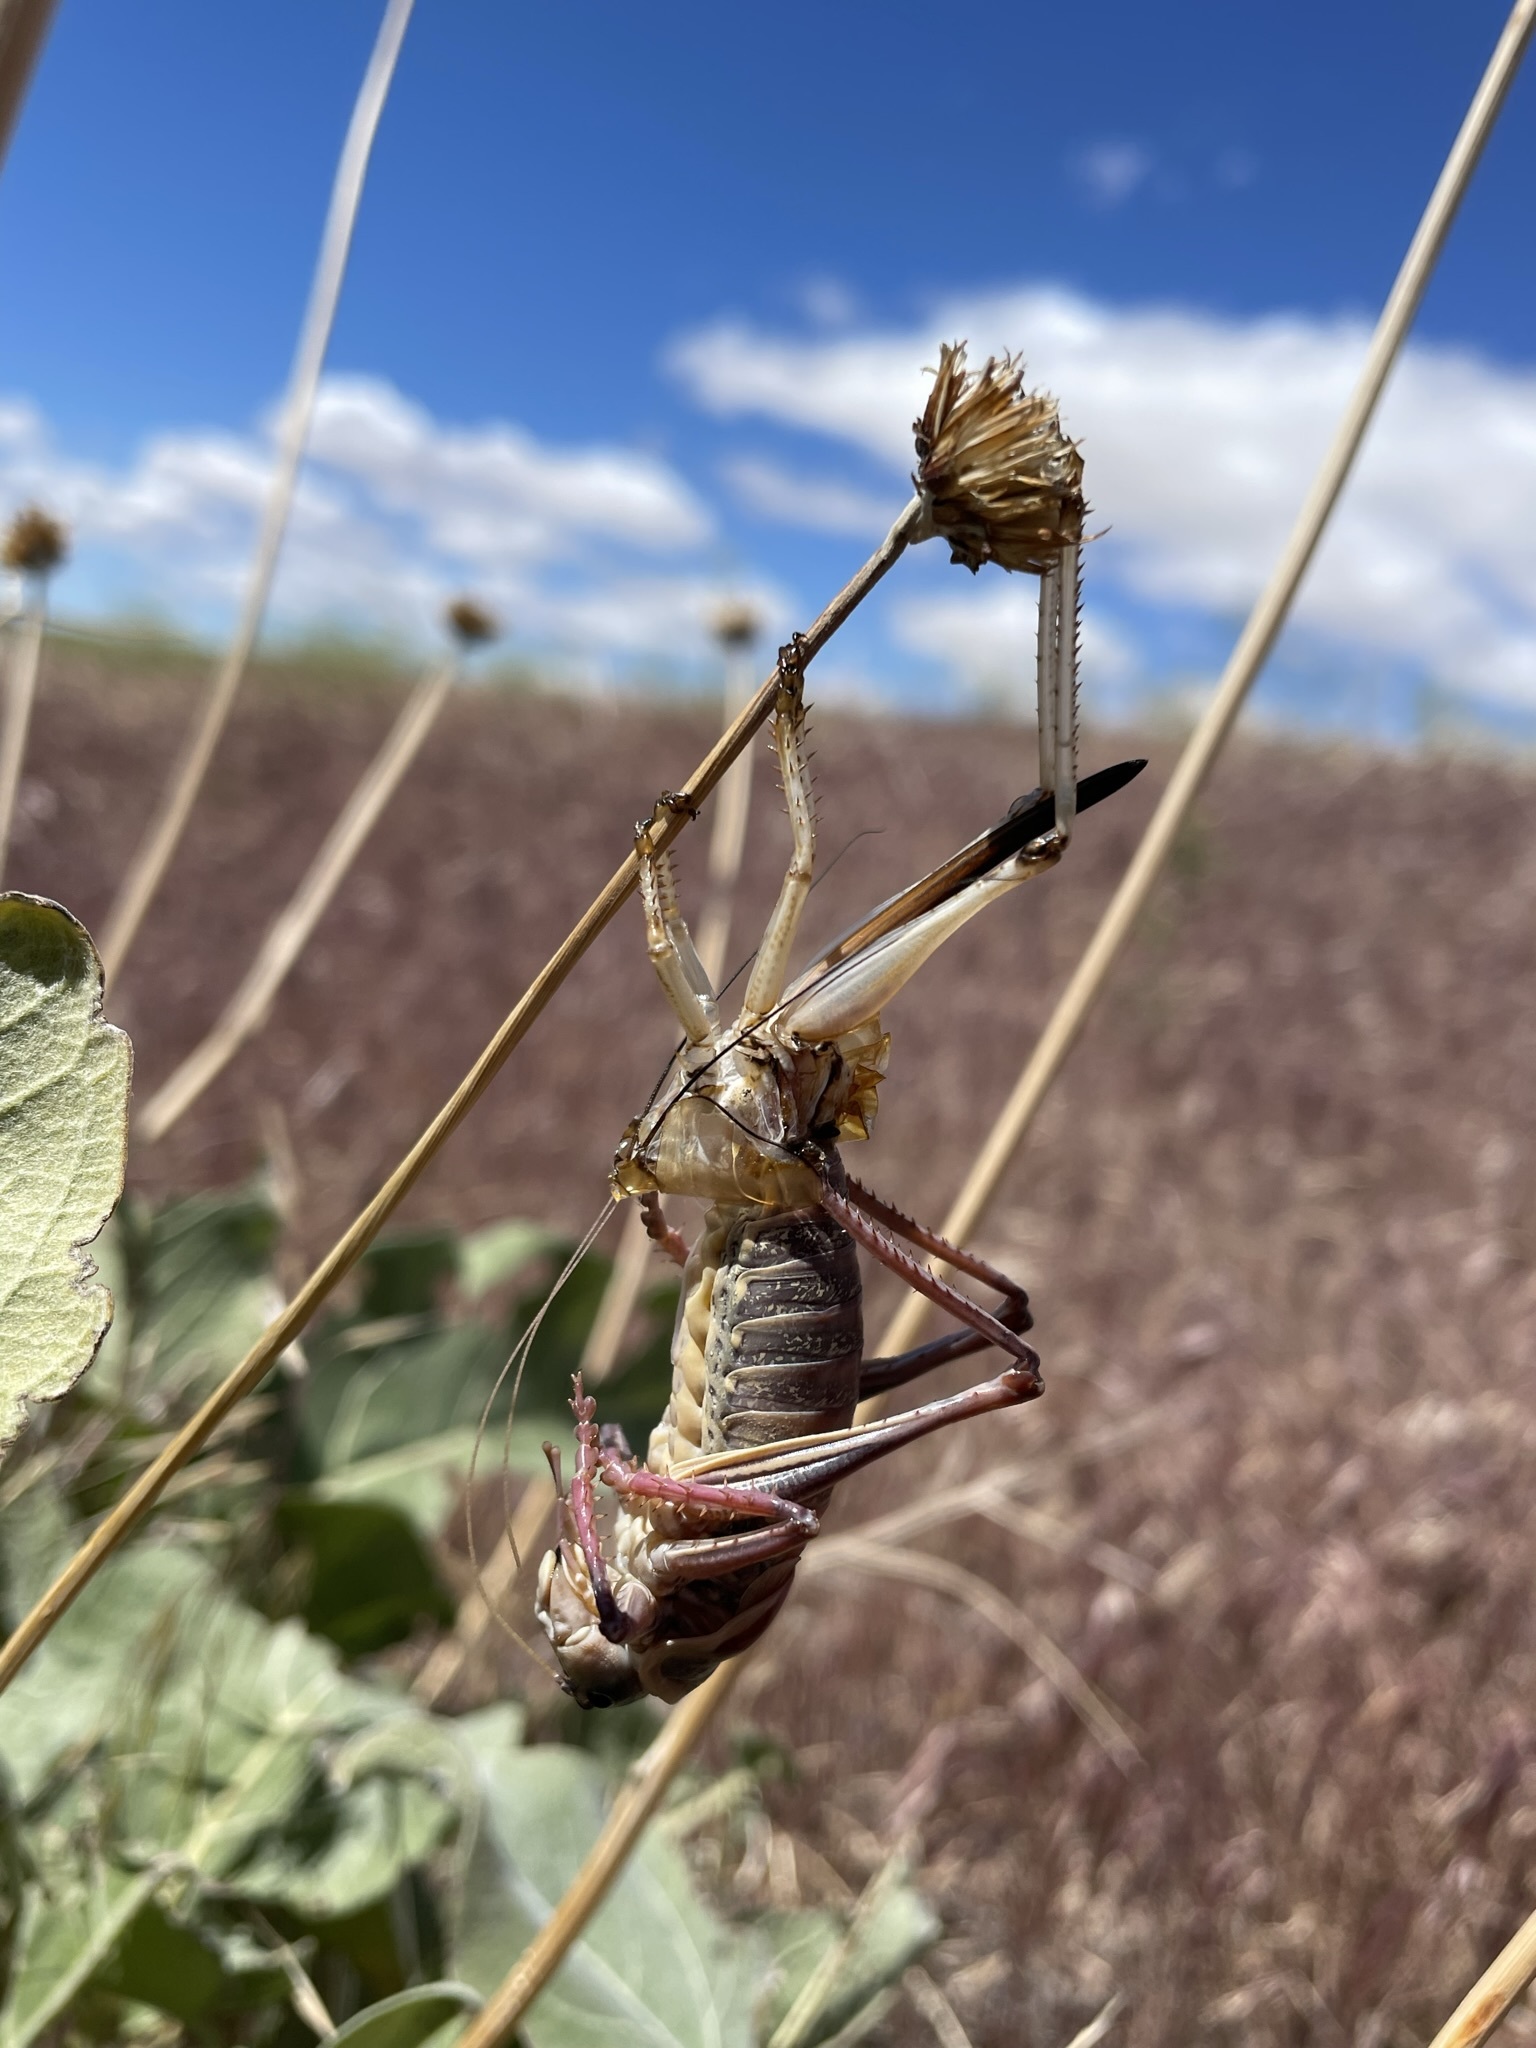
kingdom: Animalia
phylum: Arthropoda
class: Insecta
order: Orthoptera
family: Tettigoniidae
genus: Anabrus
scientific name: Anabrus simplex
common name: Mormon cricket
